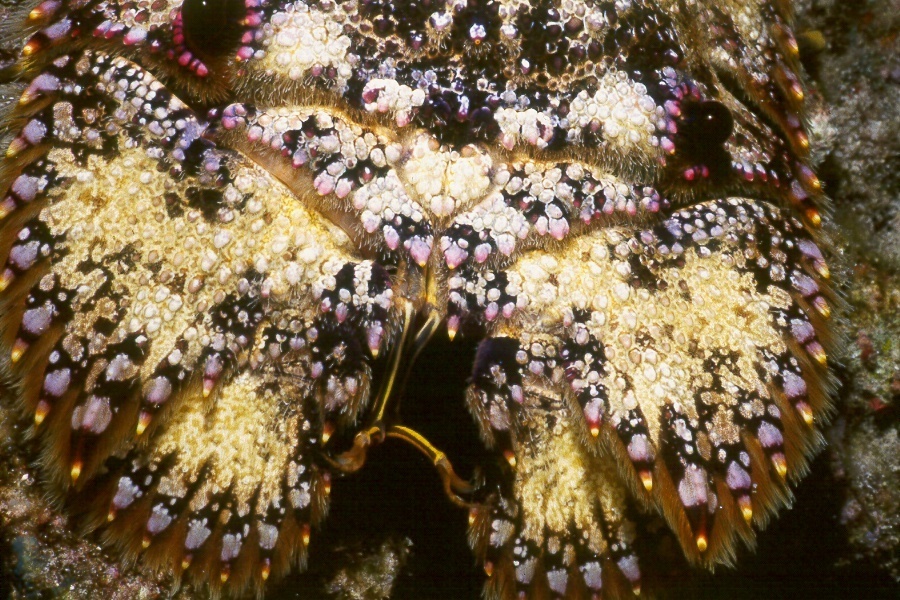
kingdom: Animalia
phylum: Arthropoda
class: Malacostraca
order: Decapoda
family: Scyllaridae
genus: Parribacus
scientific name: Parribacus antarcticus
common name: Sculptured mitten lobster
